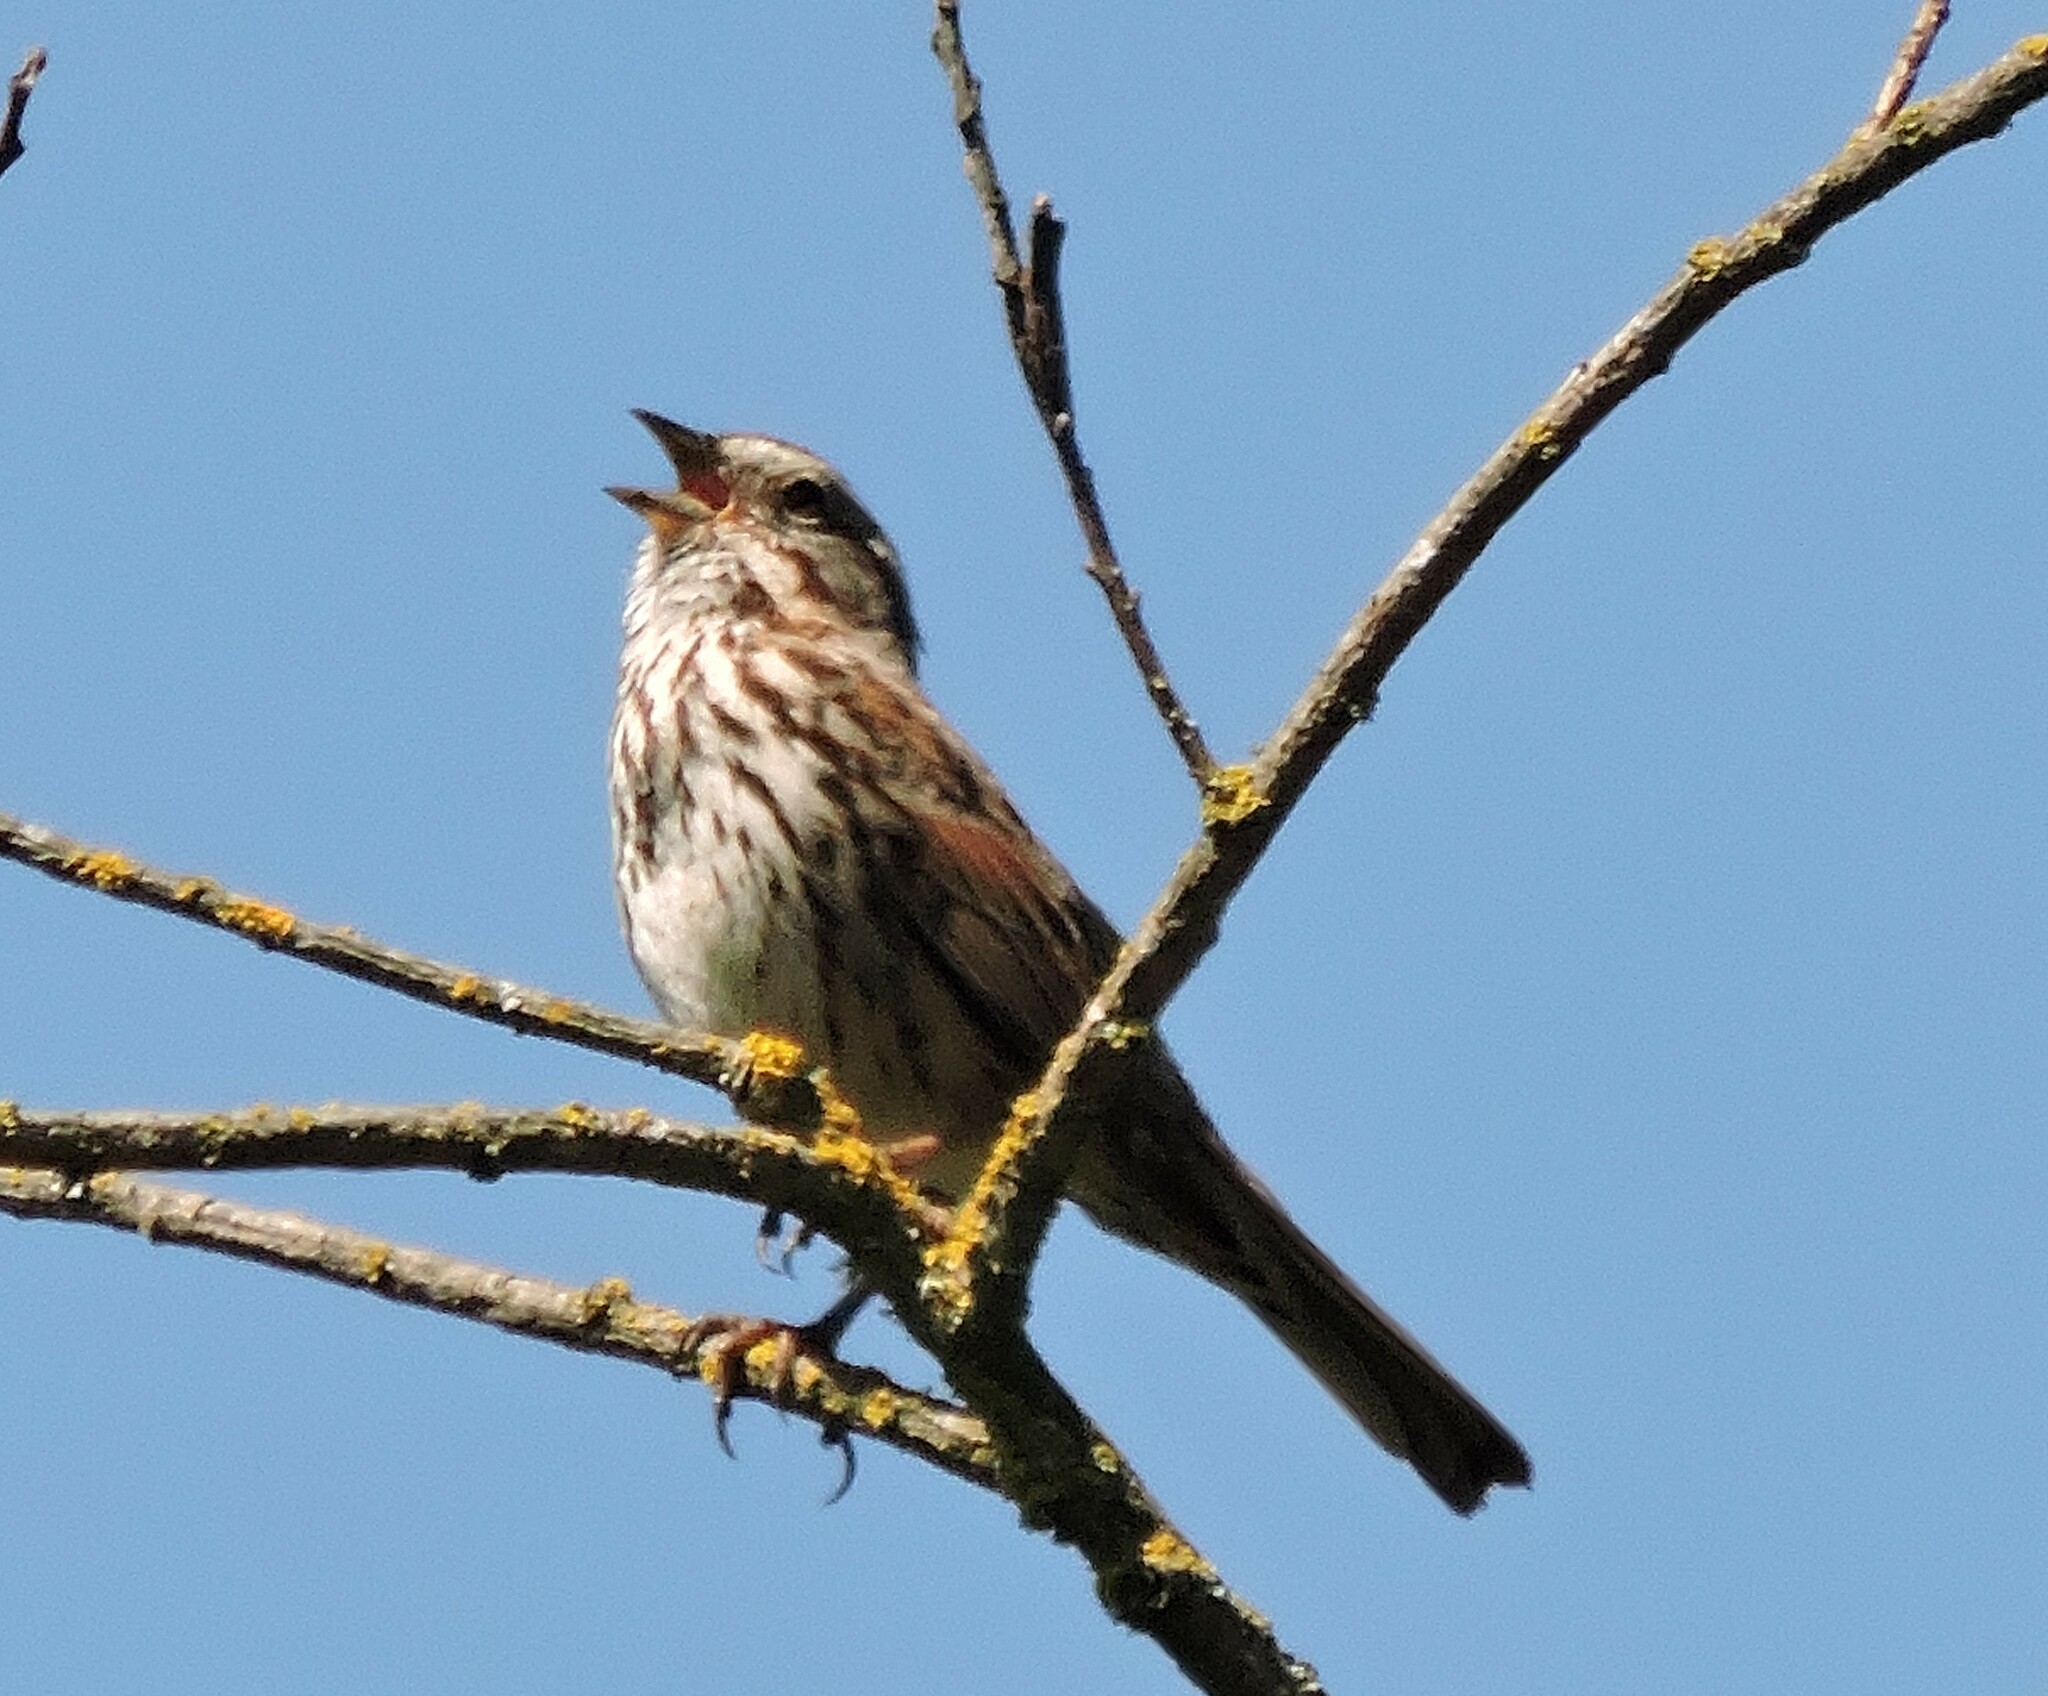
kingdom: Animalia
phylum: Chordata
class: Aves
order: Passeriformes
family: Passerellidae
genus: Melospiza
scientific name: Melospiza melodia
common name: Song sparrow
